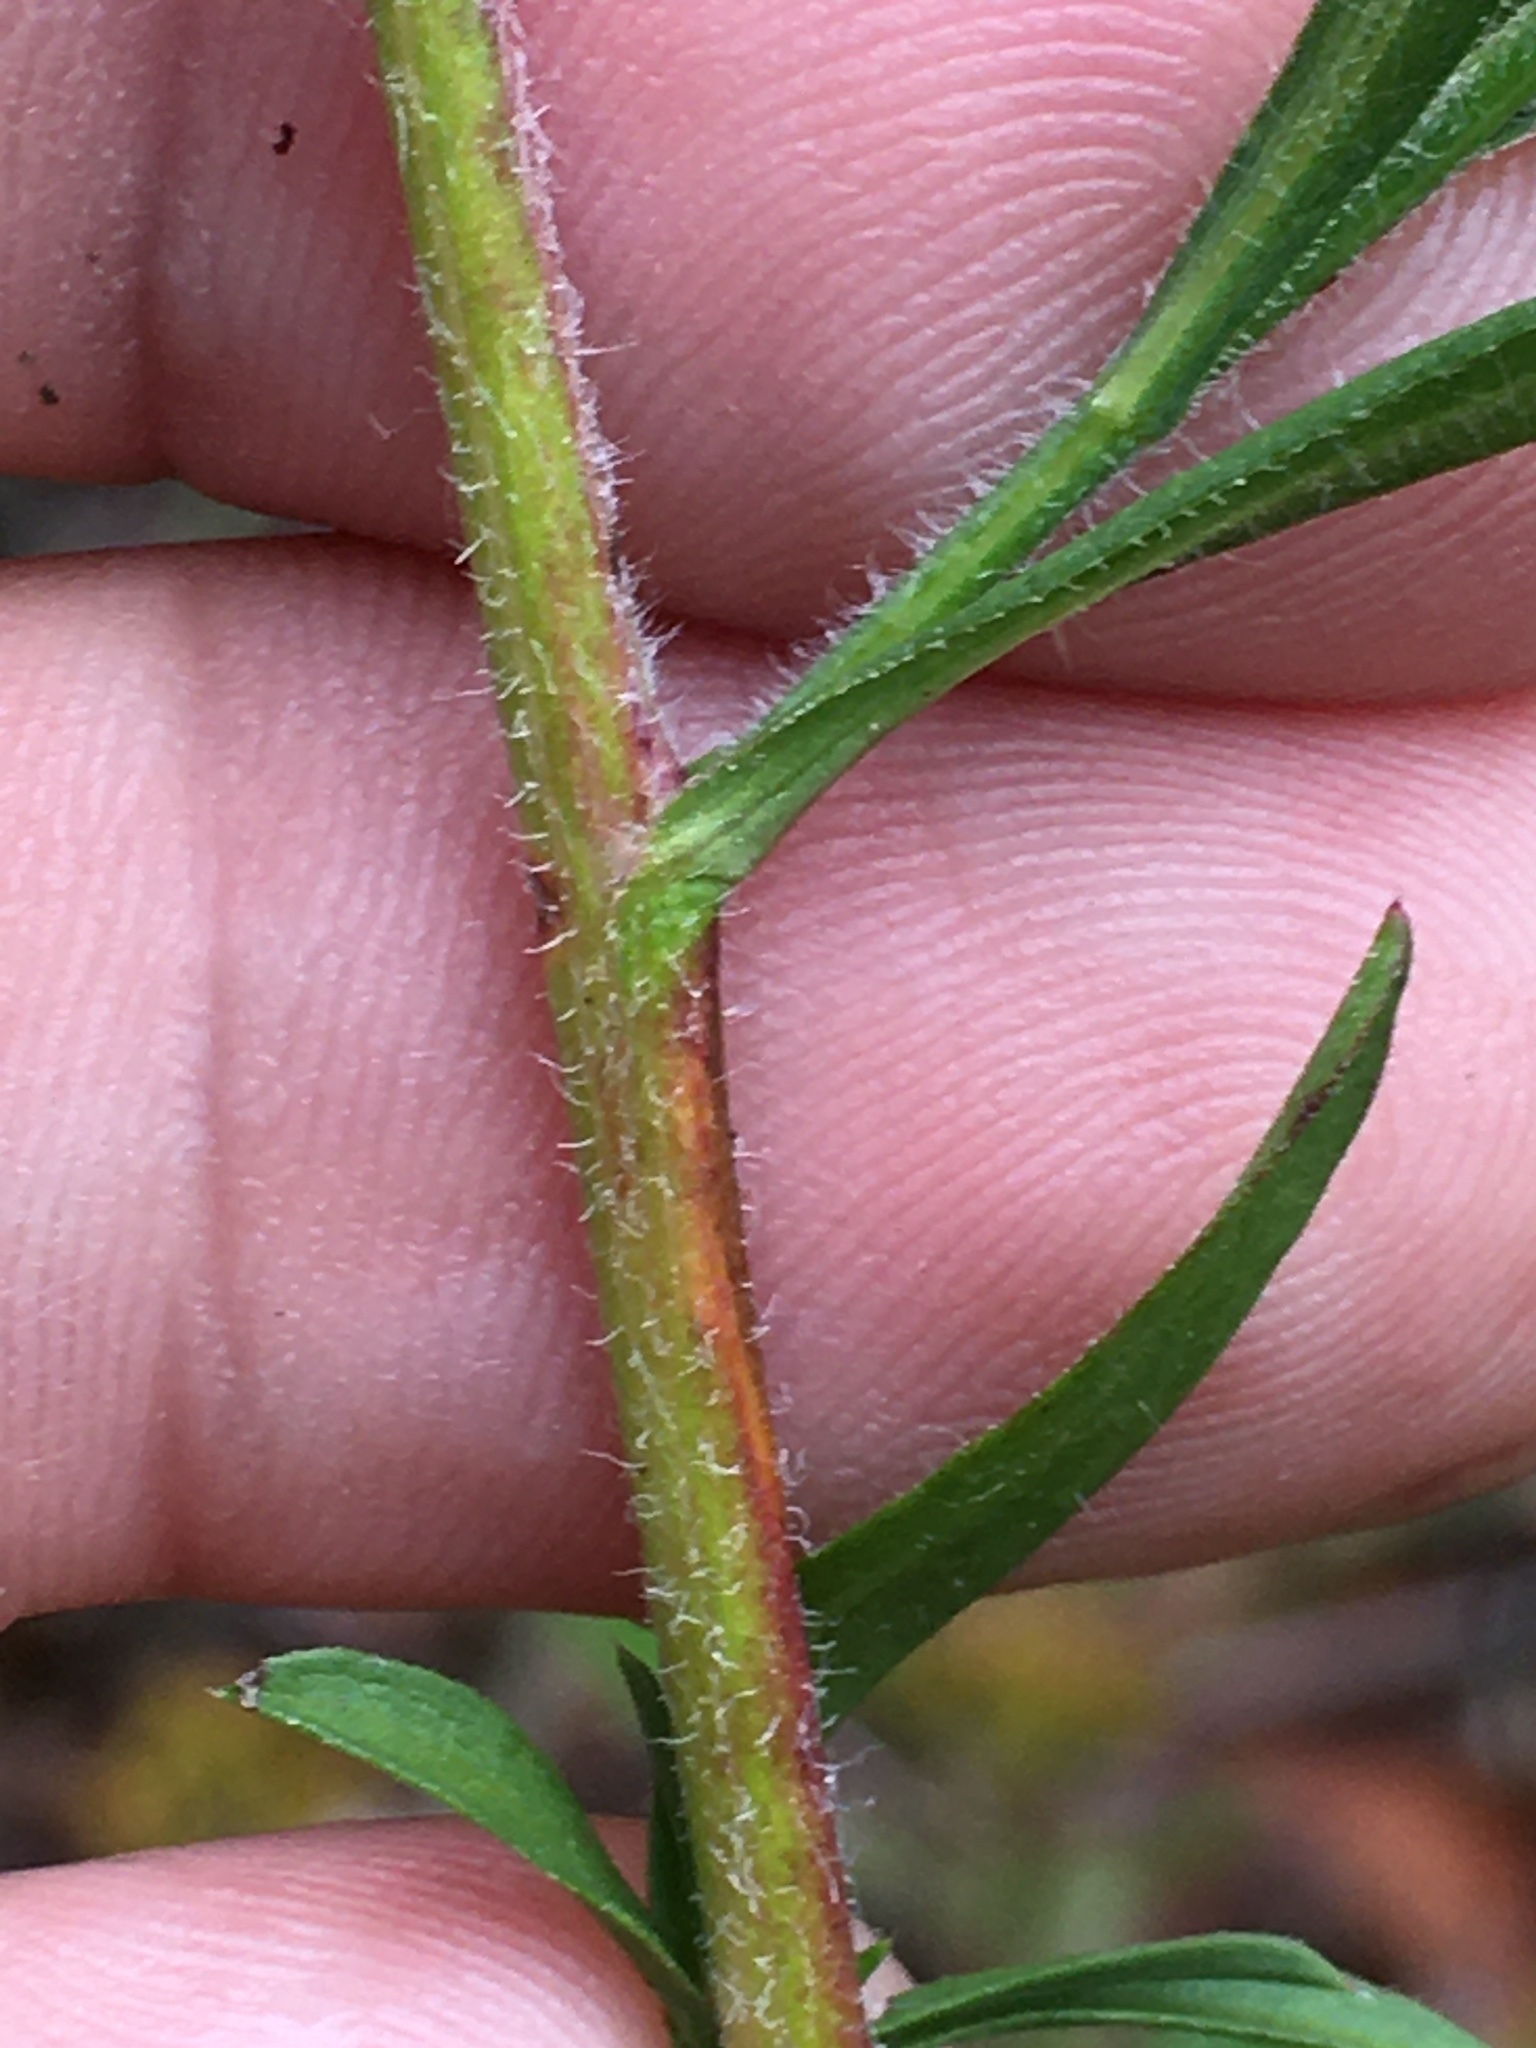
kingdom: Plantae
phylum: Tracheophyta
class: Magnoliopsida
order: Asterales
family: Asteraceae
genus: Symphyotrichum
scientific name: Symphyotrichum pilosum
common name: Awl aster
